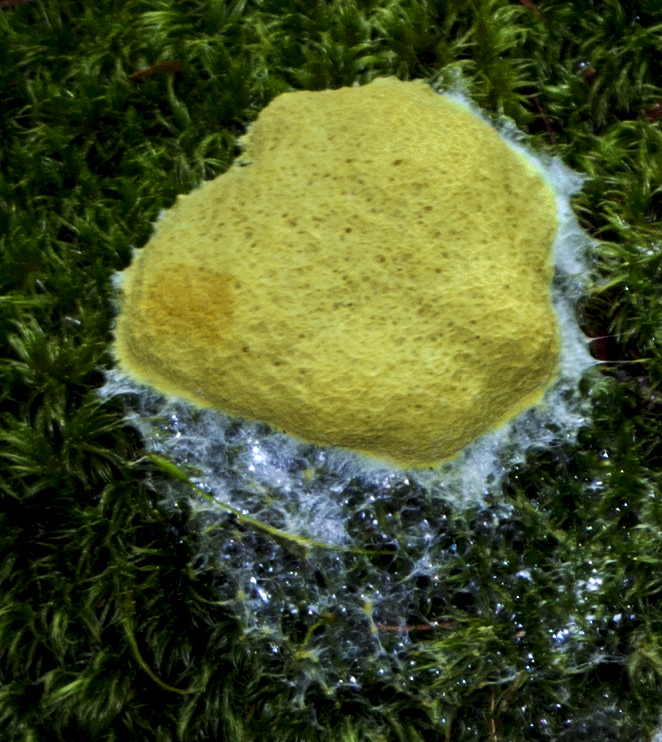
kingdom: Protozoa
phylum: Mycetozoa
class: Myxomycetes
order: Physarales
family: Physaraceae
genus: Fuligo
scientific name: Fuligo septica
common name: Dog vomit slime mold
